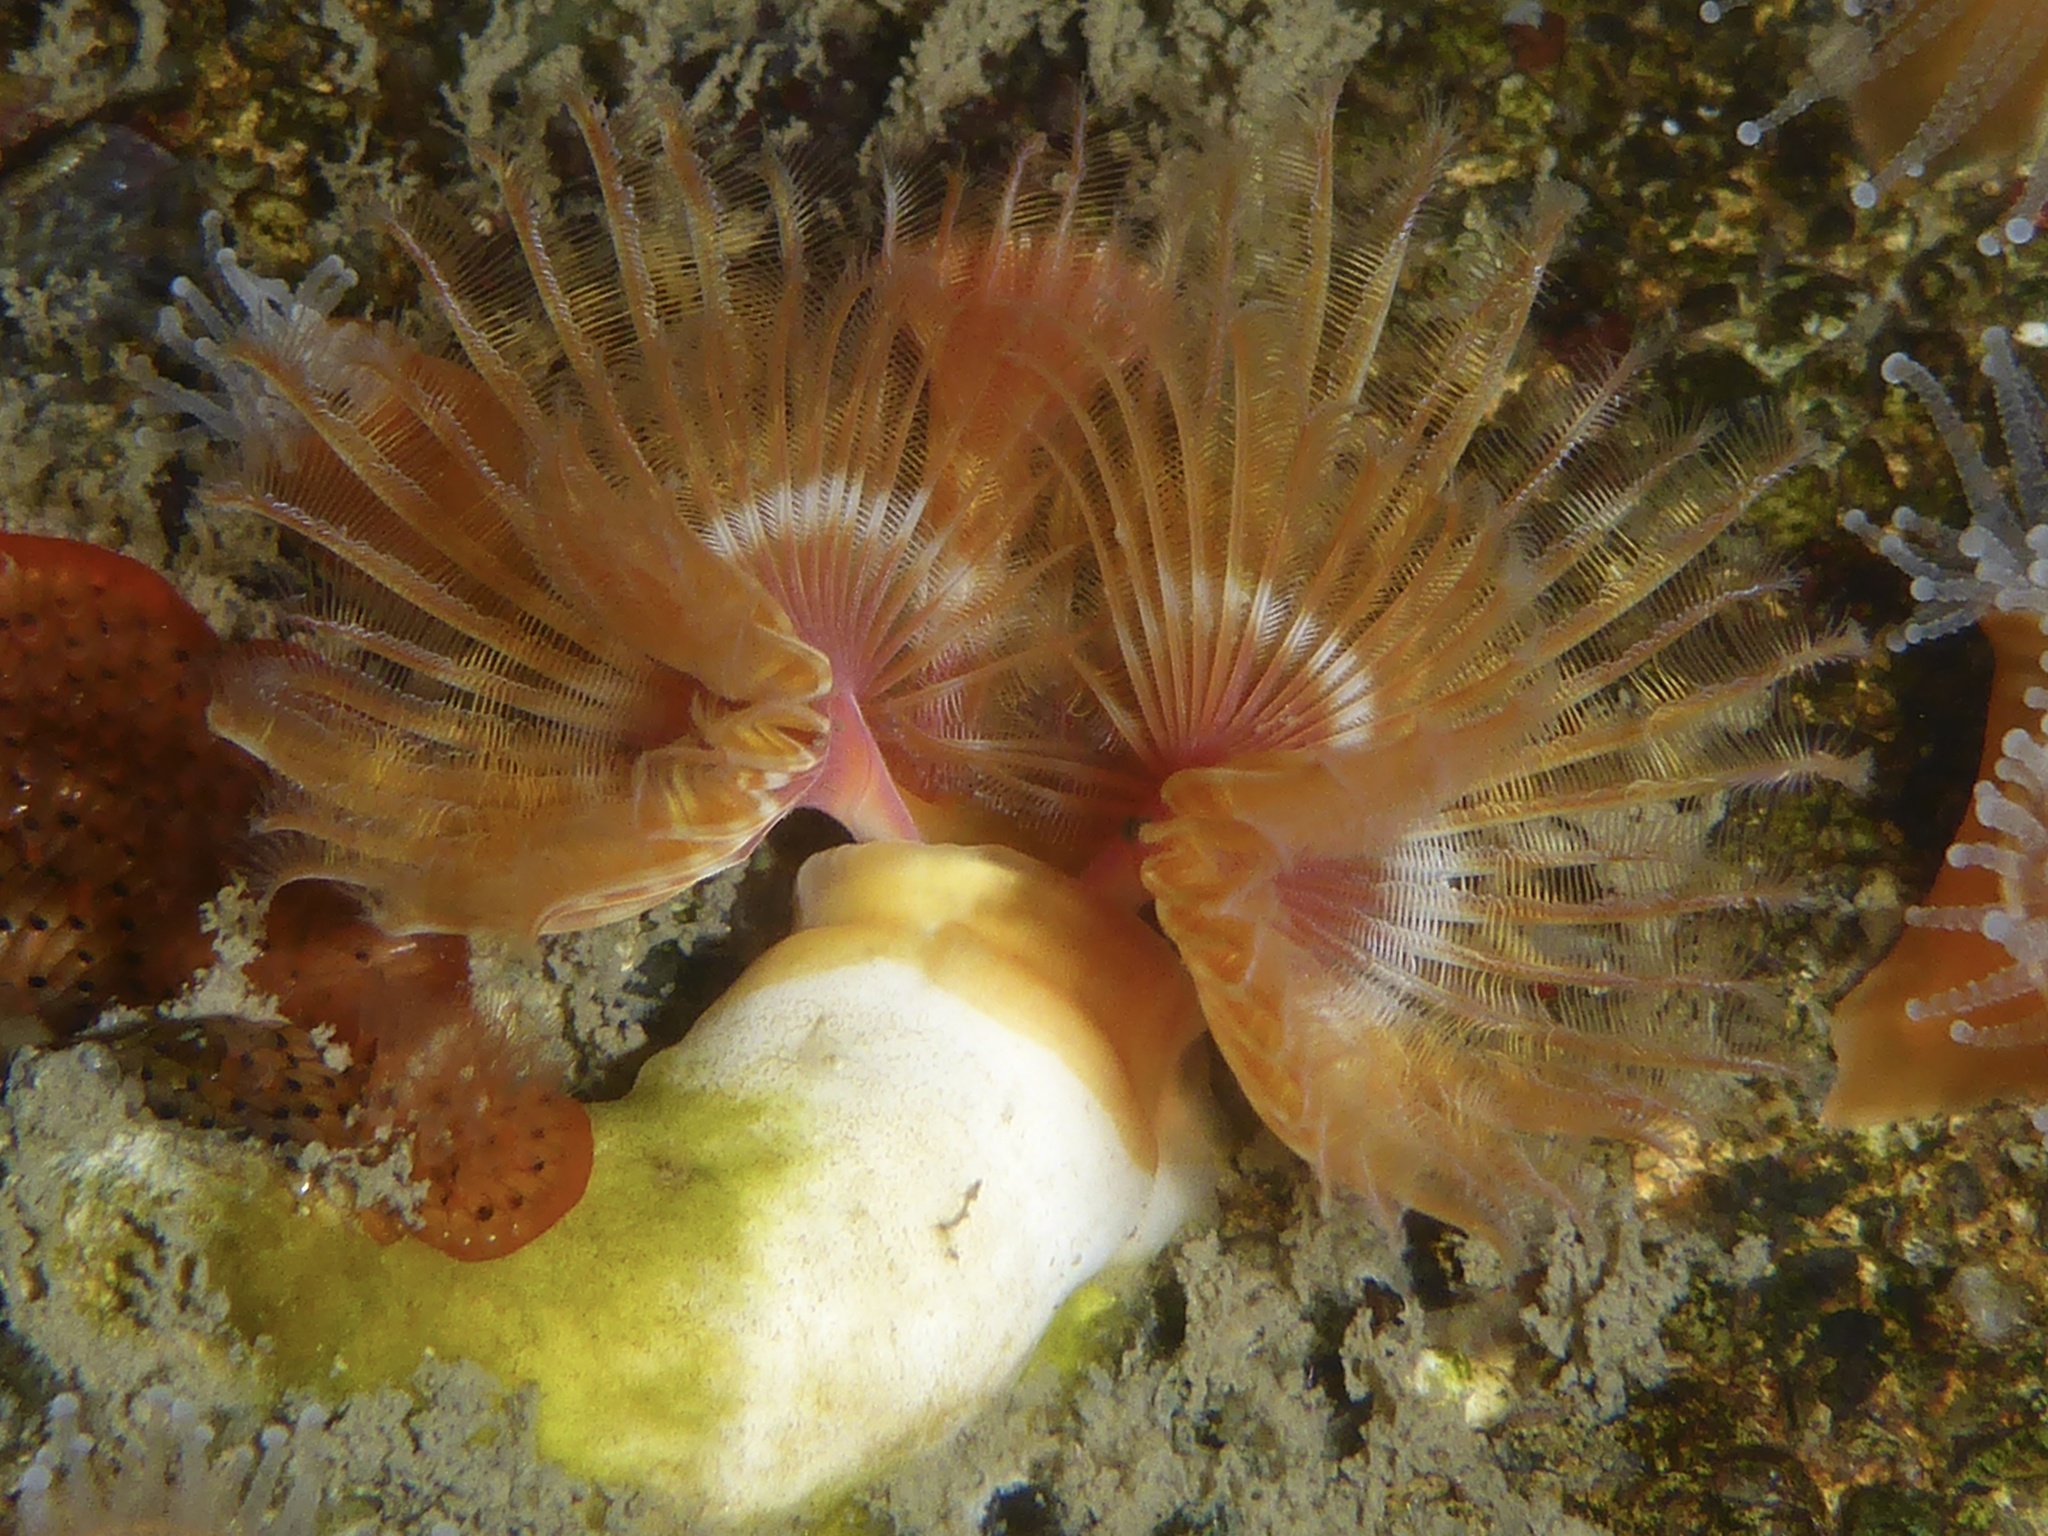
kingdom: Animalia
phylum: Annelida
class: Polychaeta
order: Sabellida
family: Serpulidae
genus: Serpula
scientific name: Serpula columbiana
